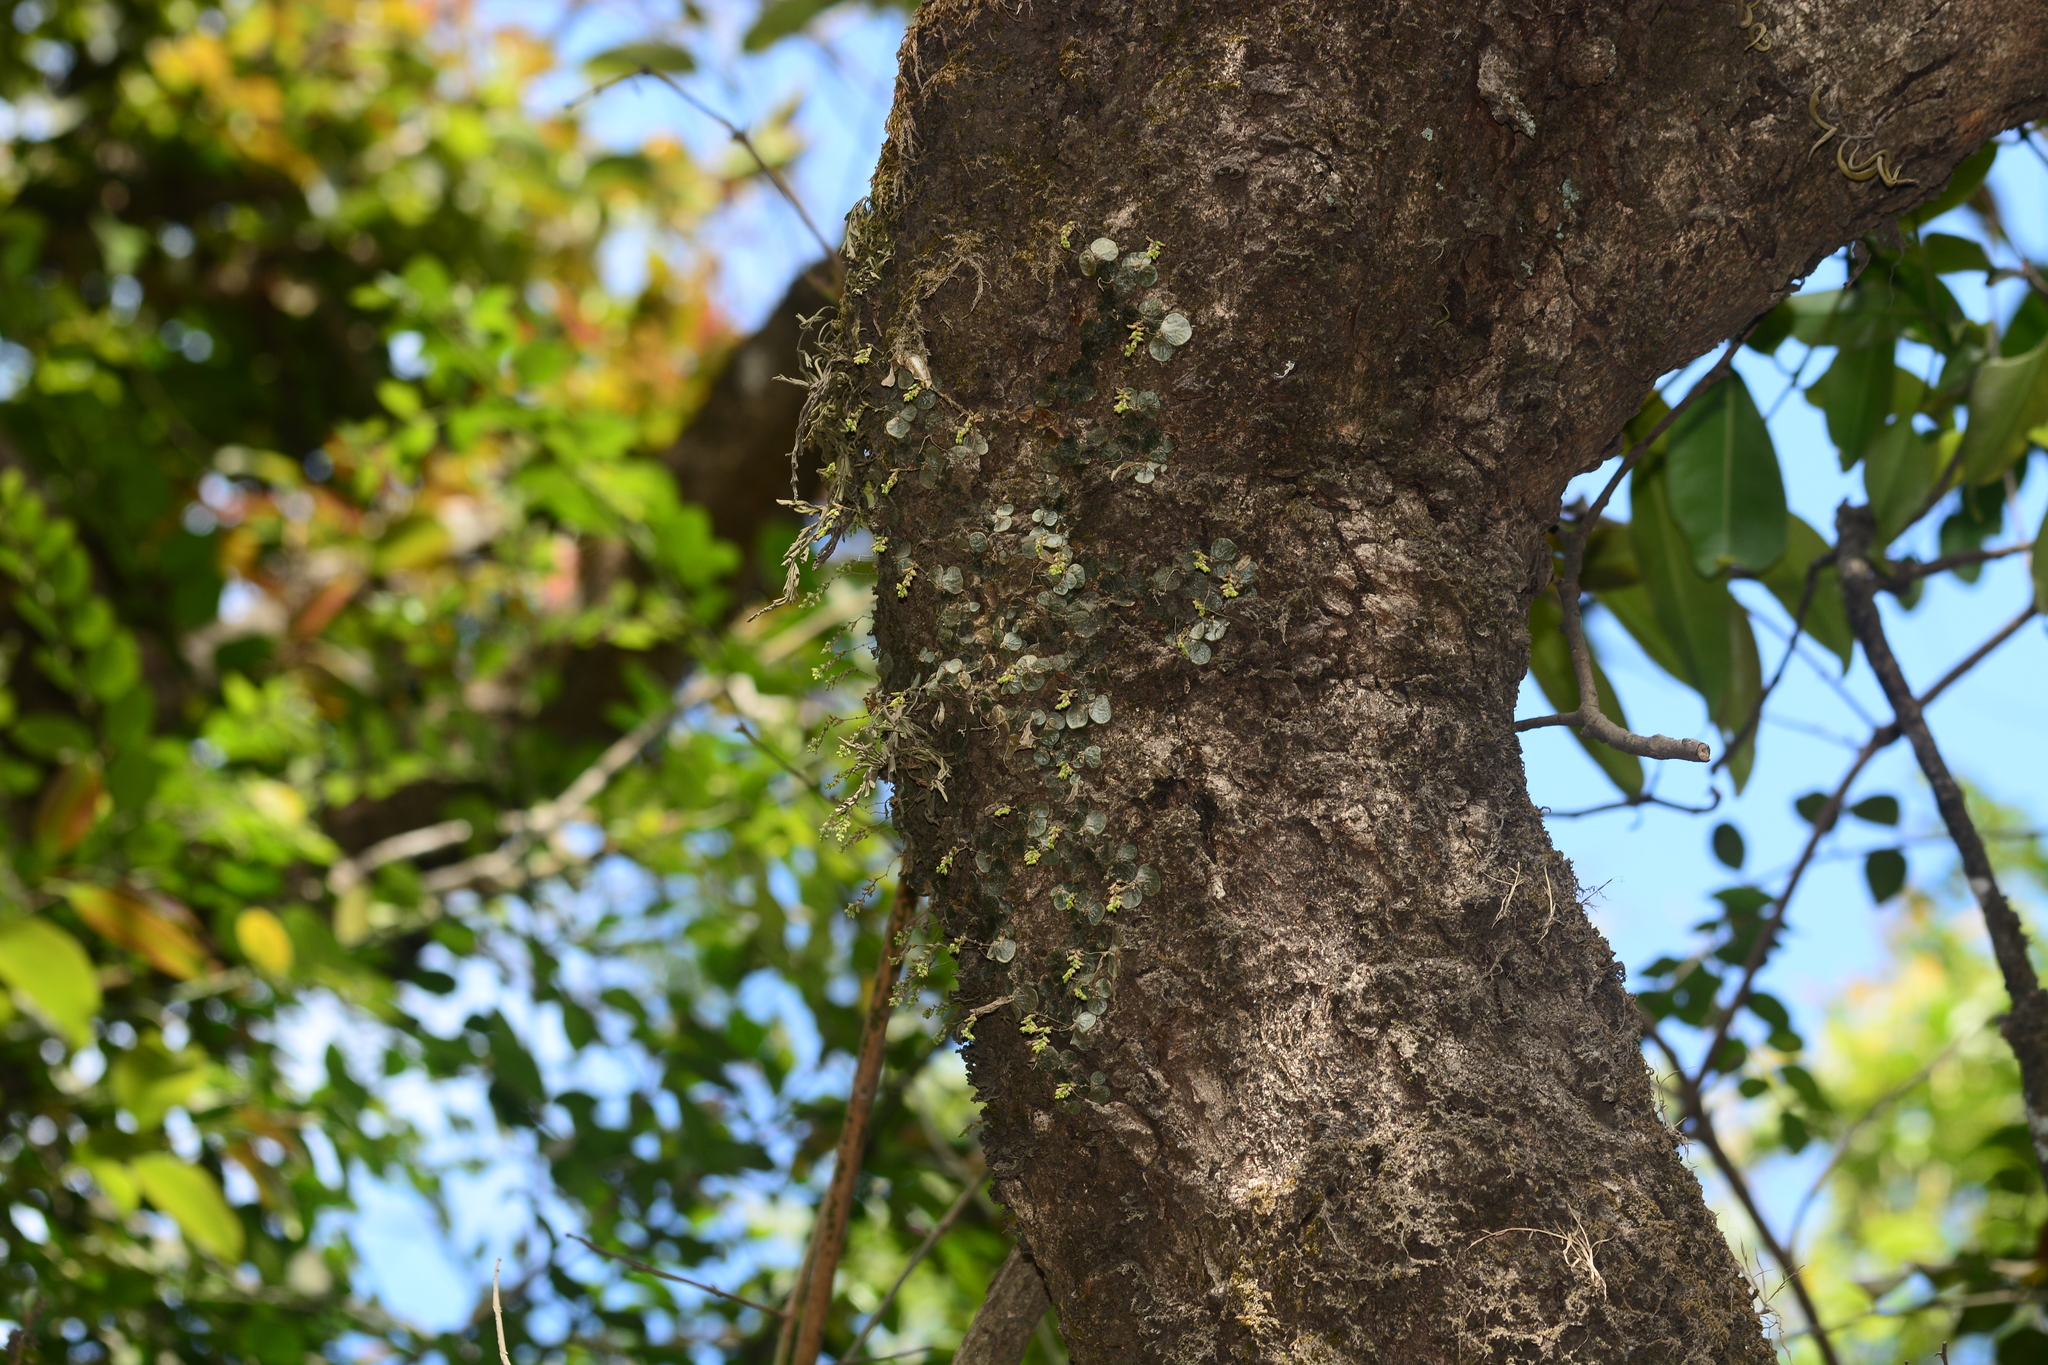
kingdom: Plantae
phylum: Tracheophyta
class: Liliopsida
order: Asparagales
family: Orchidaceae
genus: Porpax
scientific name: Porpax exilis
